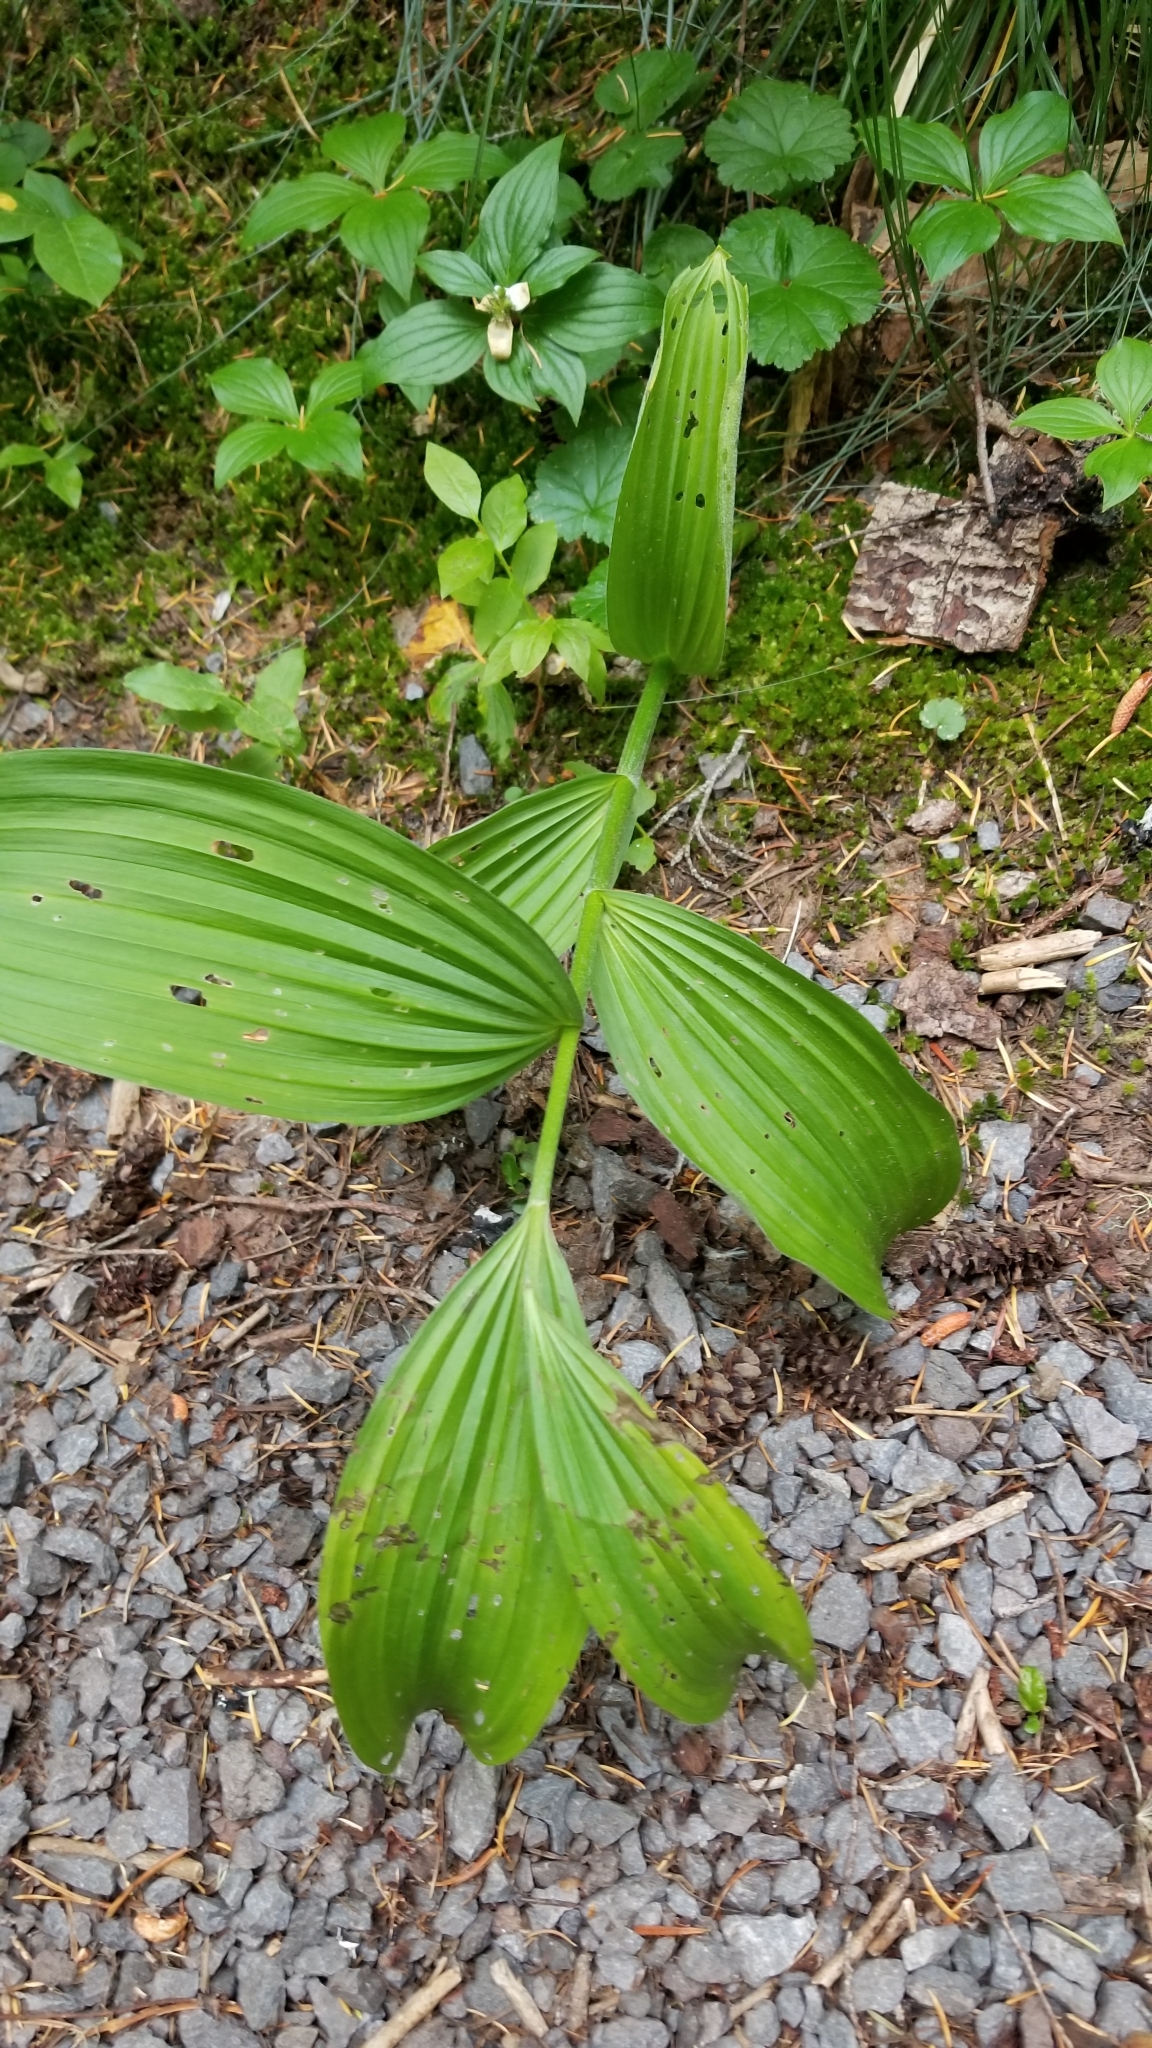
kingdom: Plantae
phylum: Tracheophyta
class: Liliopsida
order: Liliales
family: Melanthiaceae
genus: Veratrum
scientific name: Veratrum viride
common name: American false hellebore
